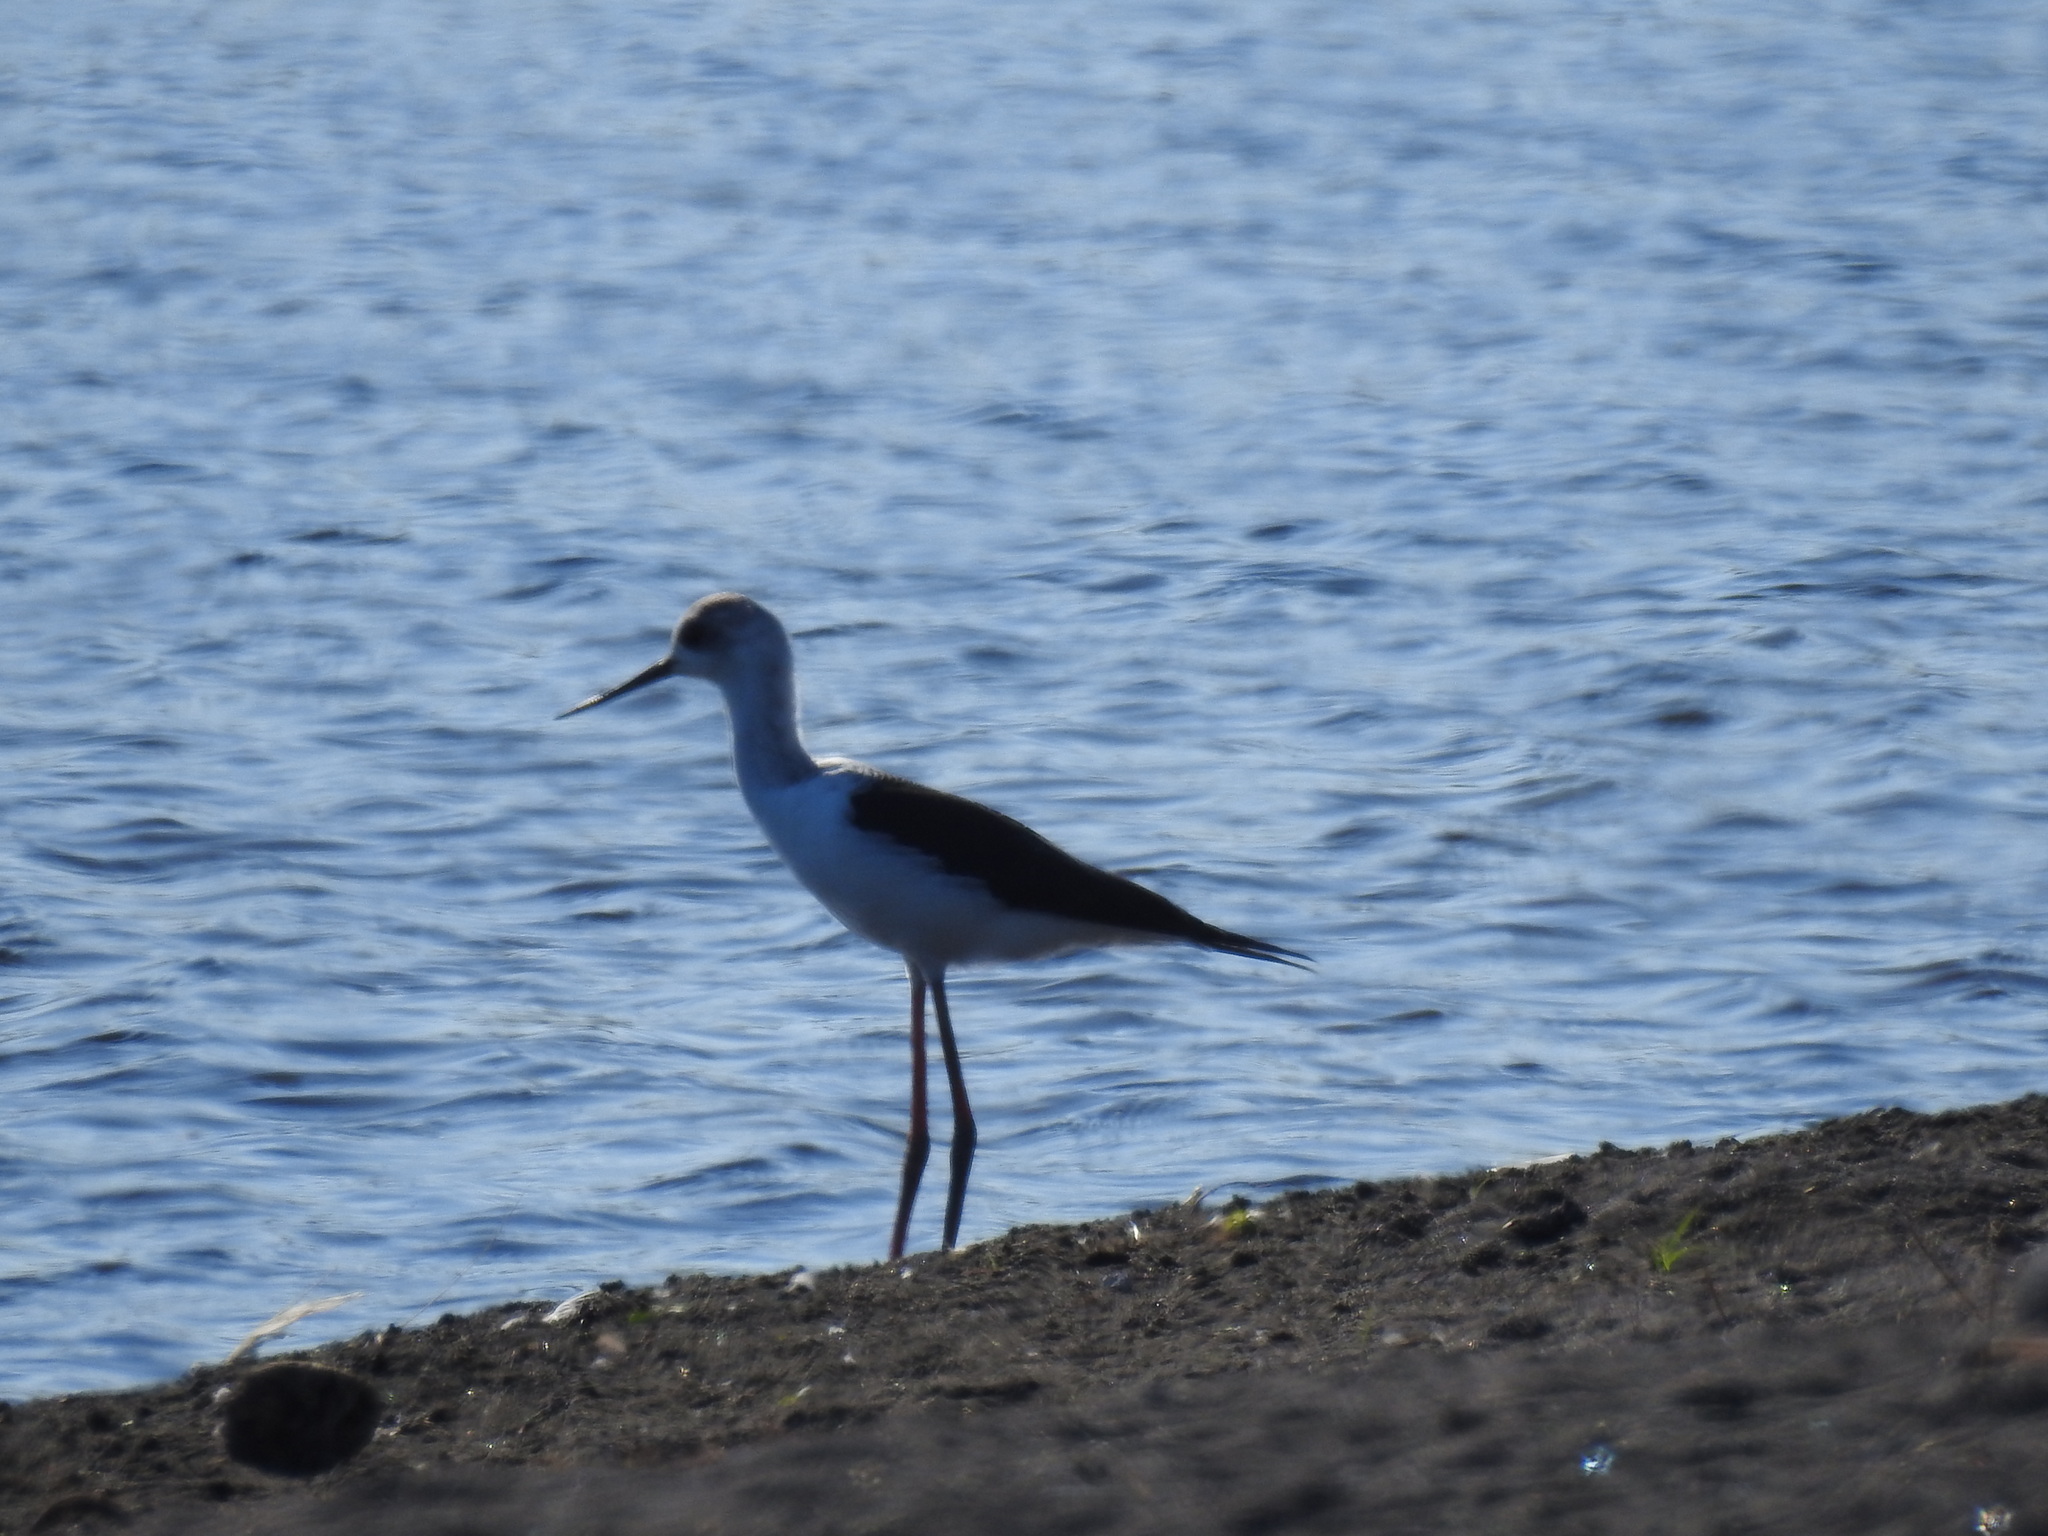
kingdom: Animalia
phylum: Chordata
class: Aves
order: Charadriiformes
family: Recurvirostridae
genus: Himantopus
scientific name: Himantopus leucocephalus
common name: White-headed stilt
